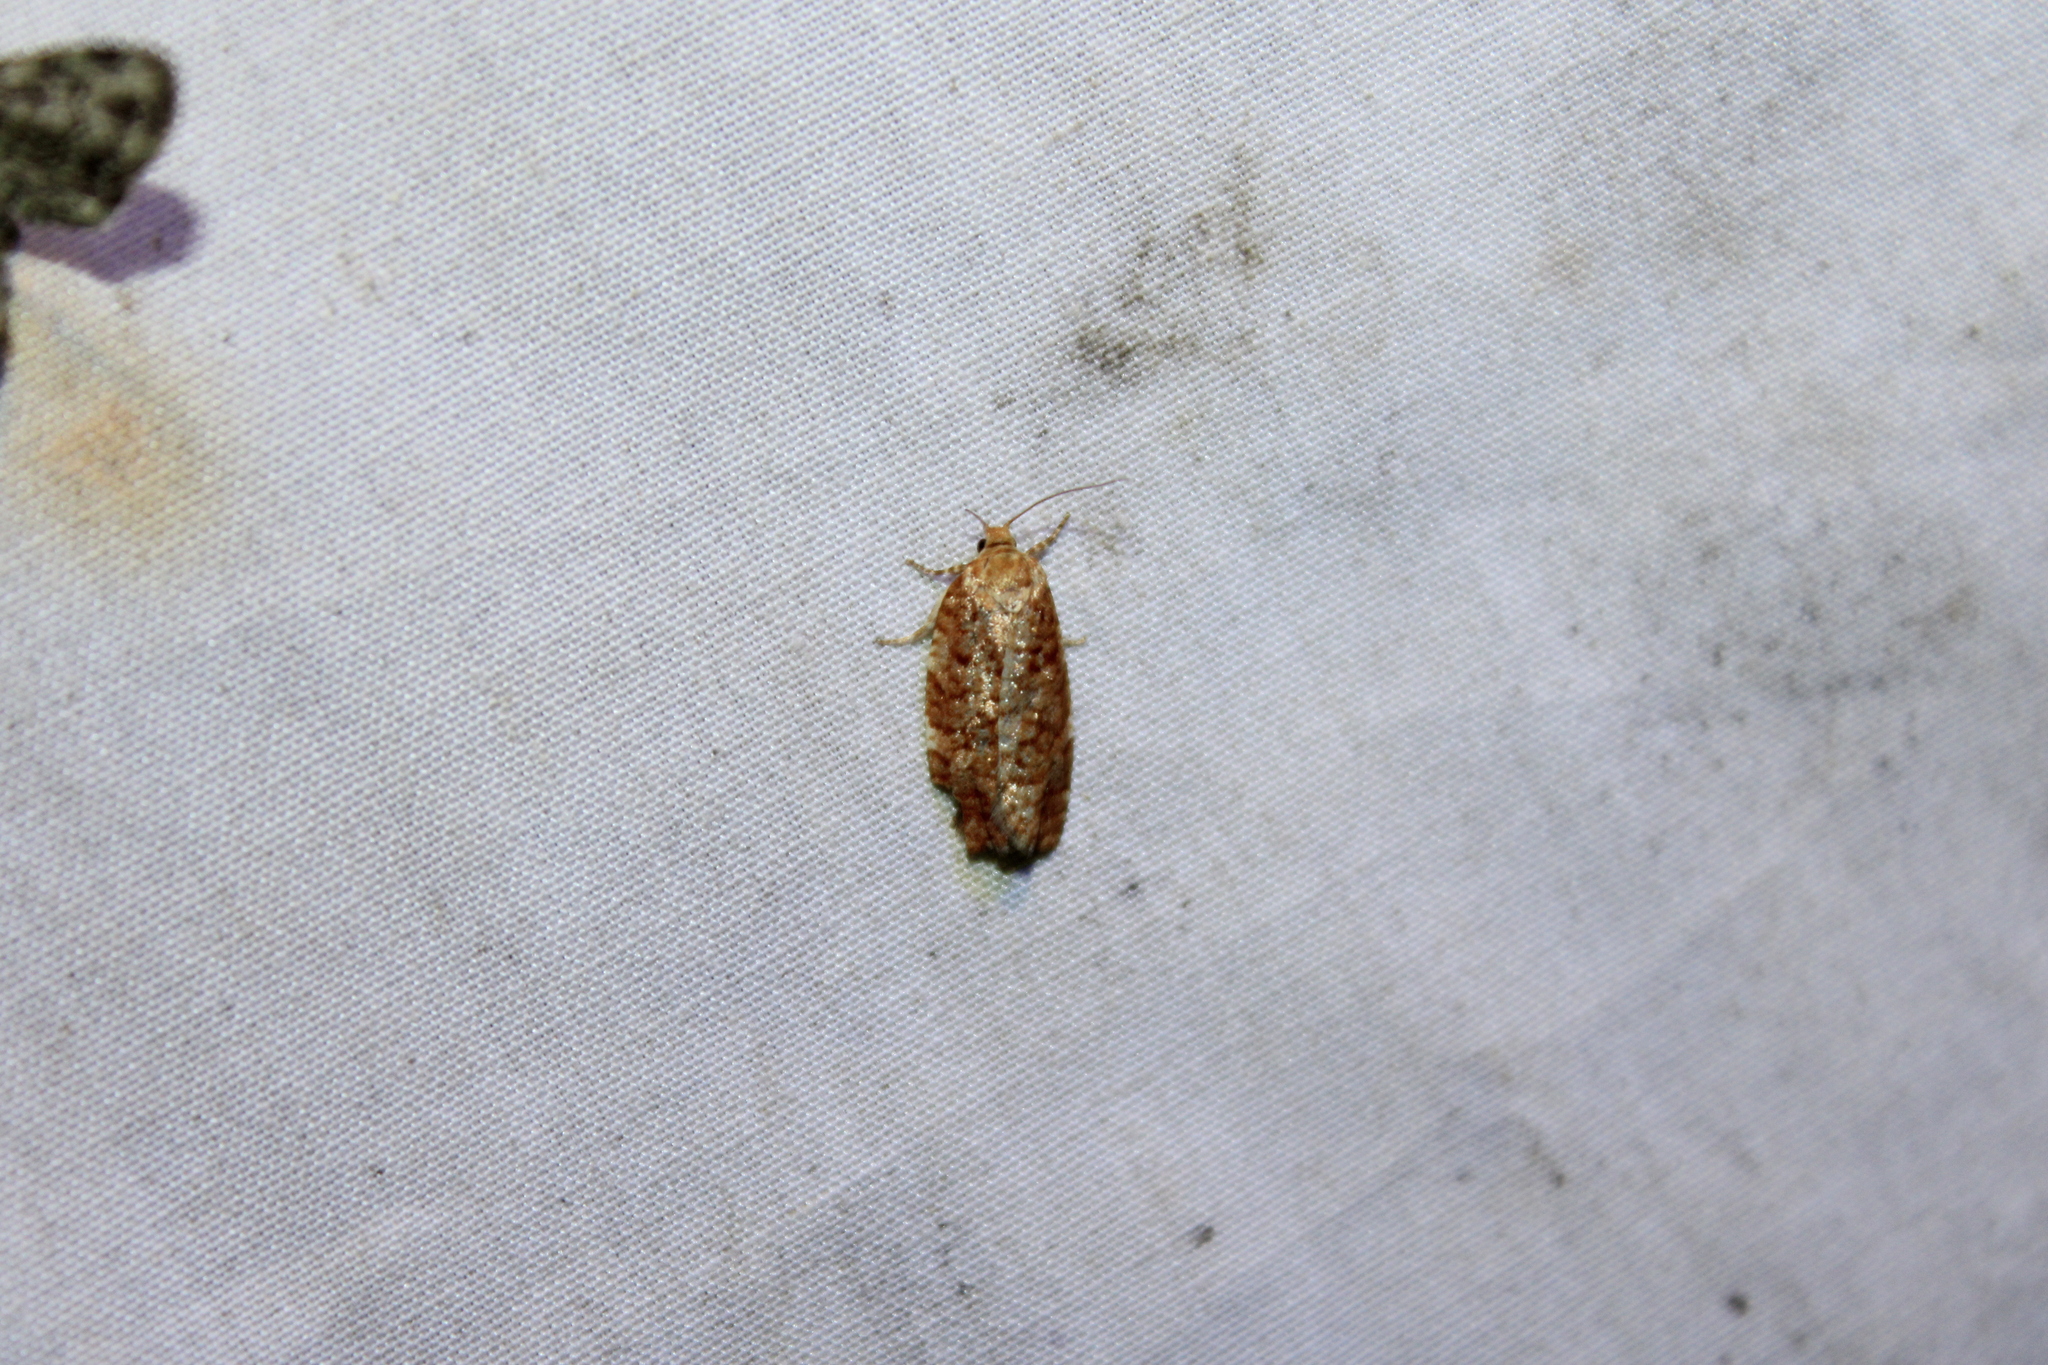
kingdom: Animalia
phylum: Arthropoda
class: Insecta
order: Lepidoptera
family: Tortricidae
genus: Choristoneura
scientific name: Choristoneura pinus
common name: Jack pine budworm
